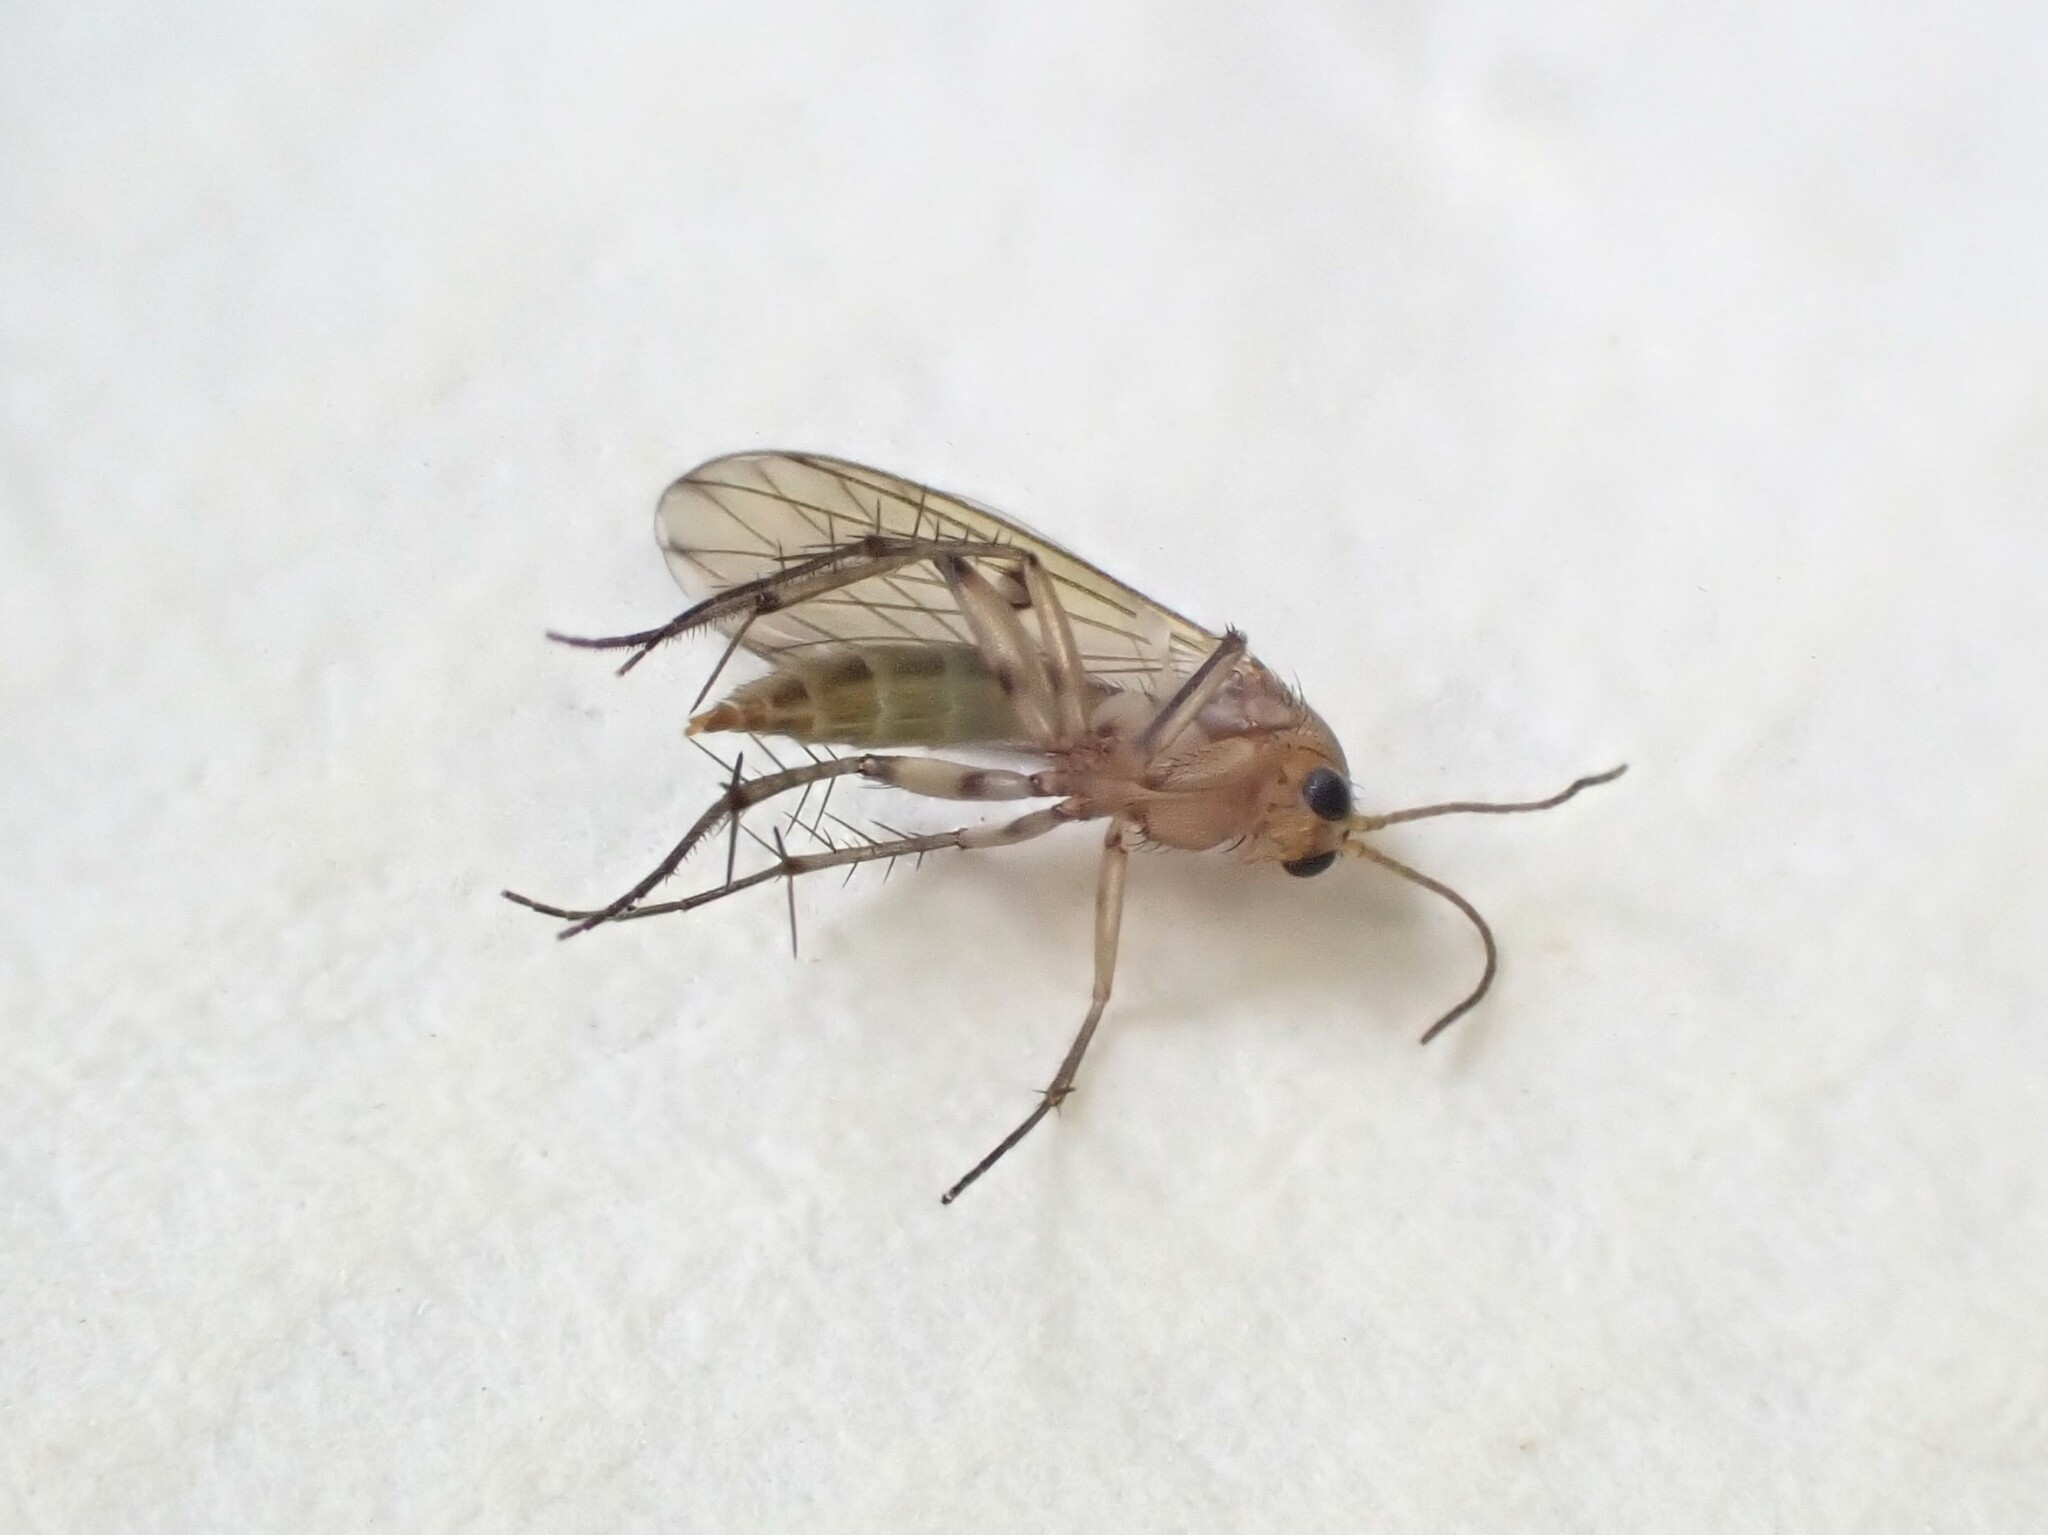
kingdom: Animalia
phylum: Arthropoda
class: Insecta
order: Diptera
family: Mycetophilidae
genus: Mycetophila
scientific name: Mycetophila marginepunctata
